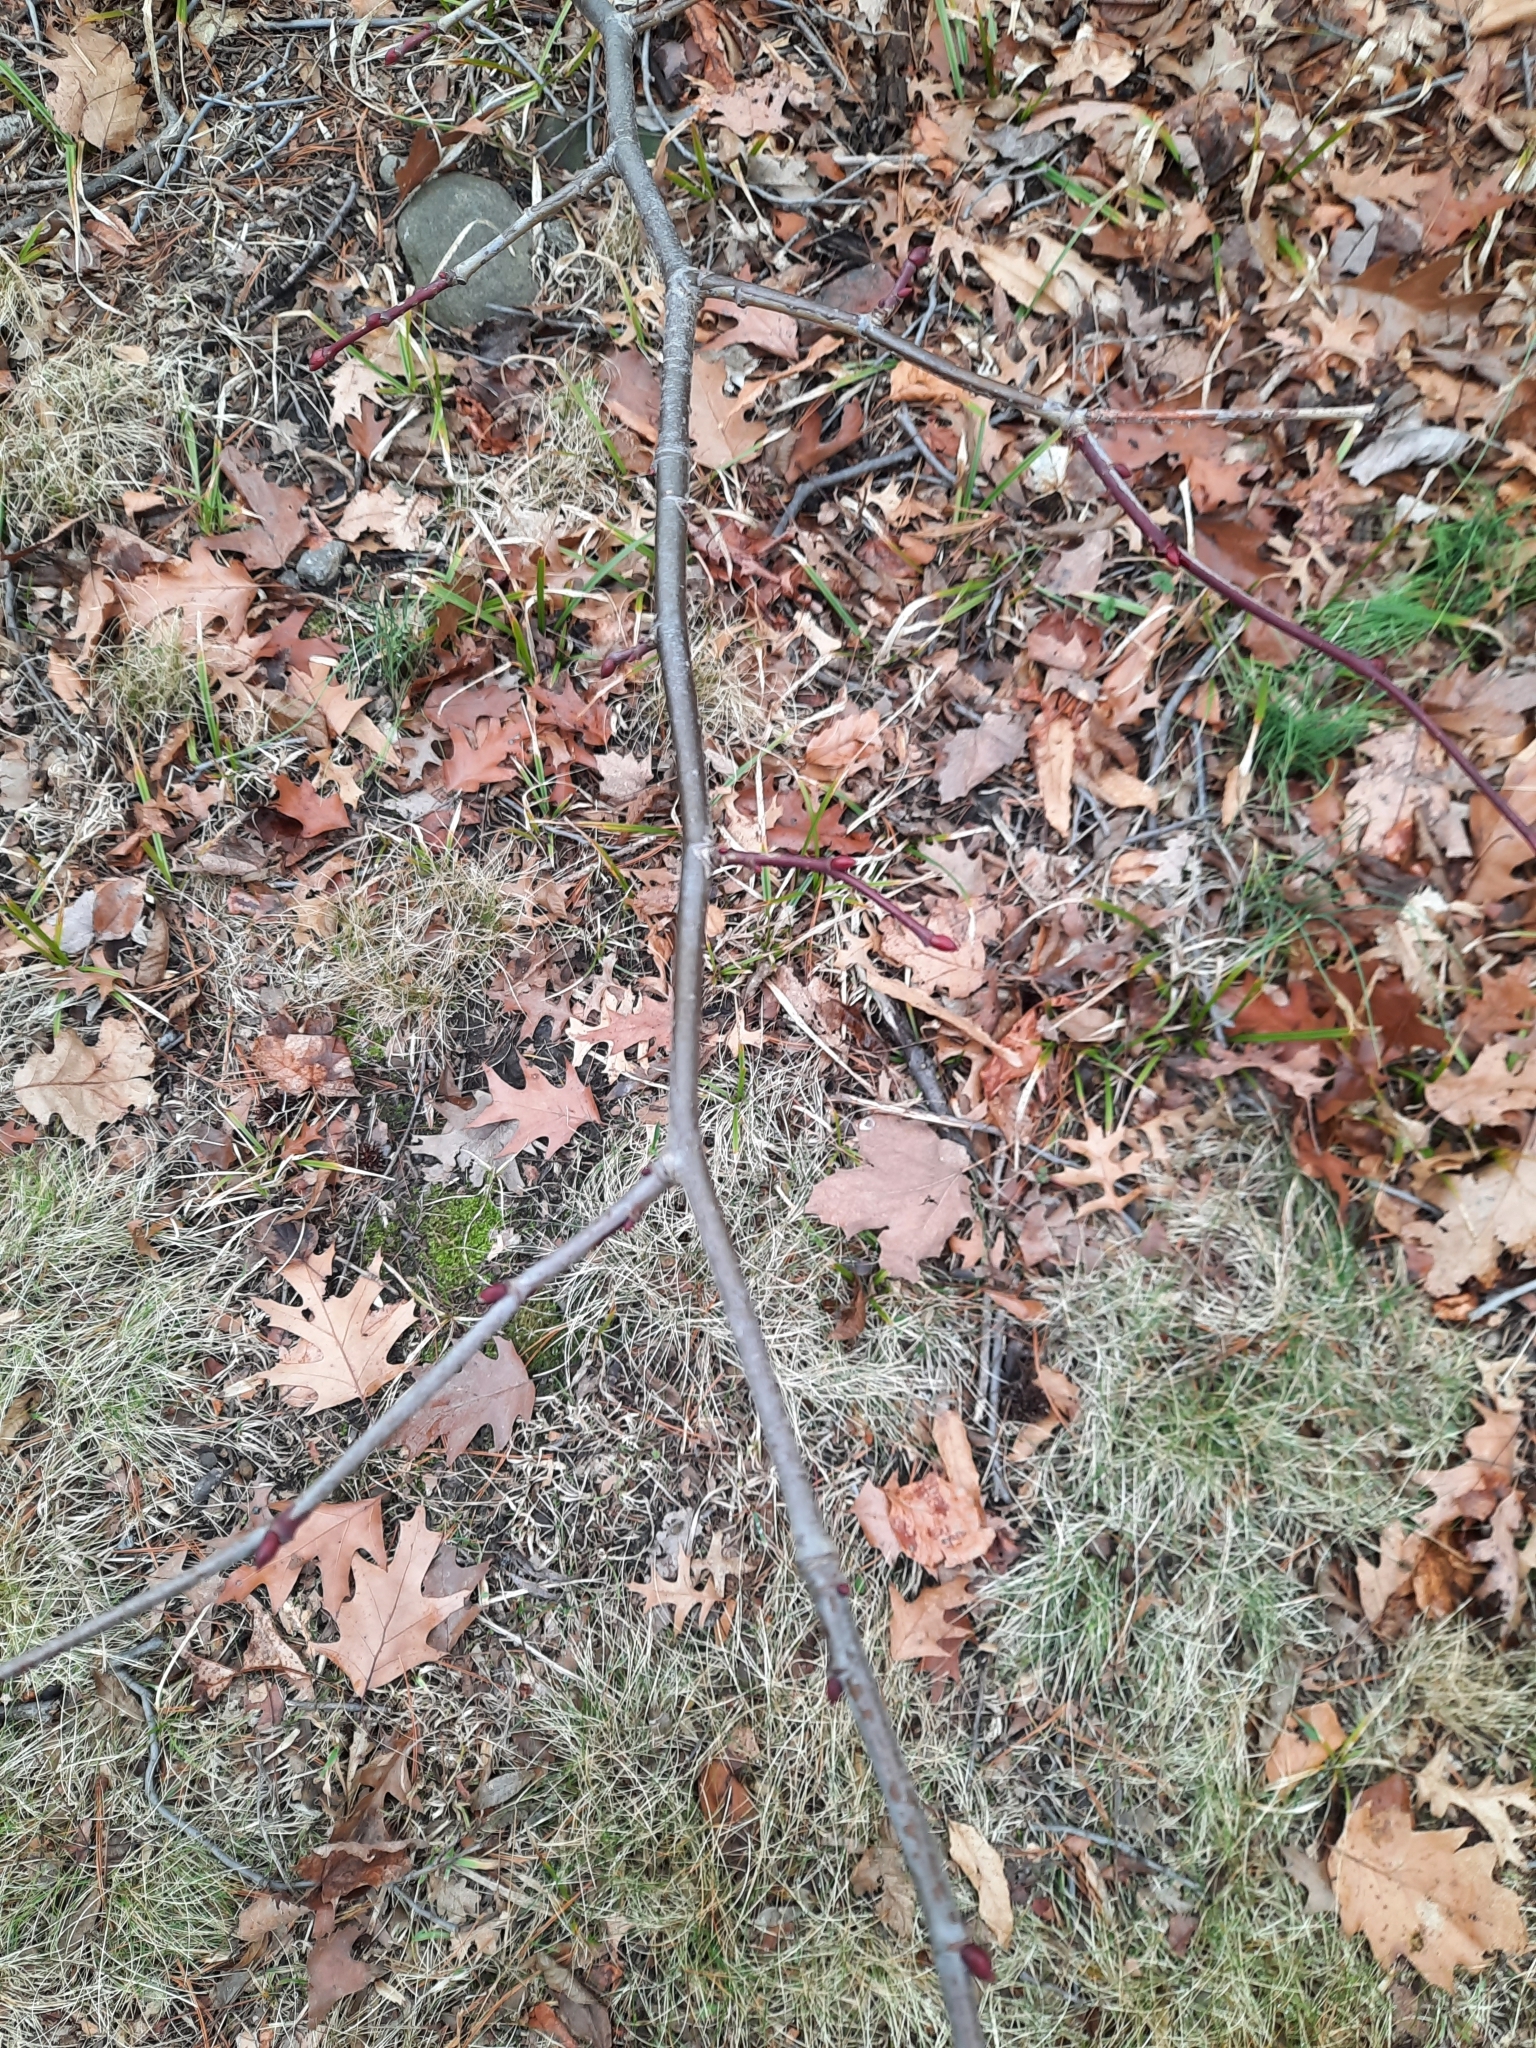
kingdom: Plantae
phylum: Tracheophyta
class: Magnoliopsida
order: Malvales
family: Malvaceae
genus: Tilia
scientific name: Tilia americana
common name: Basswood
